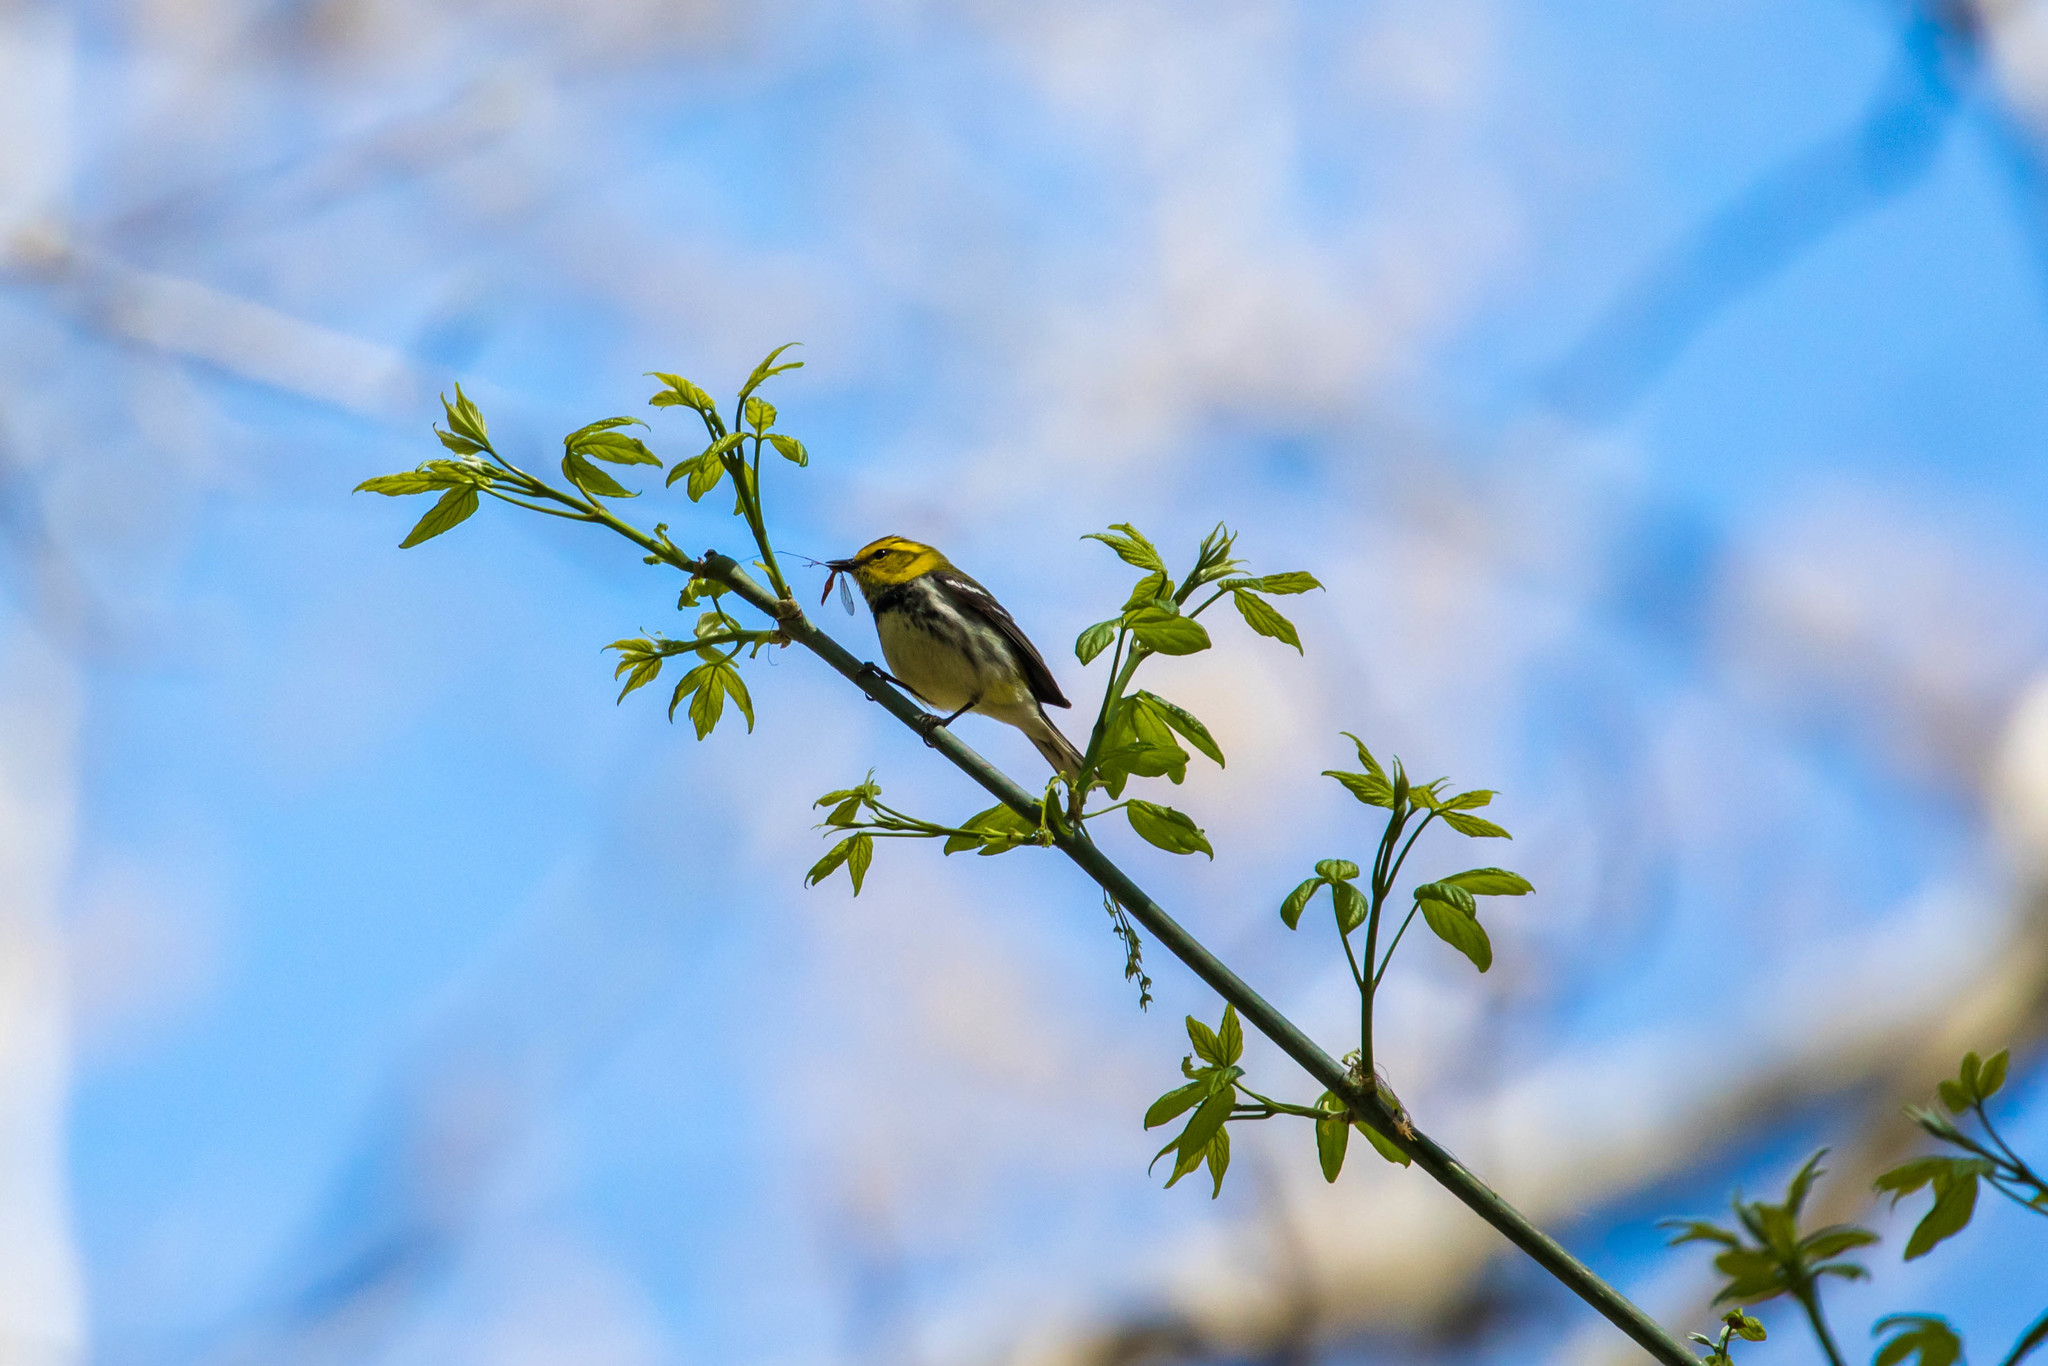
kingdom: Animalia
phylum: Chordata
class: Aves
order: Passeriformes
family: Parulidae
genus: Setophaga
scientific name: Setophaga virens
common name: Black-throated green warbler
